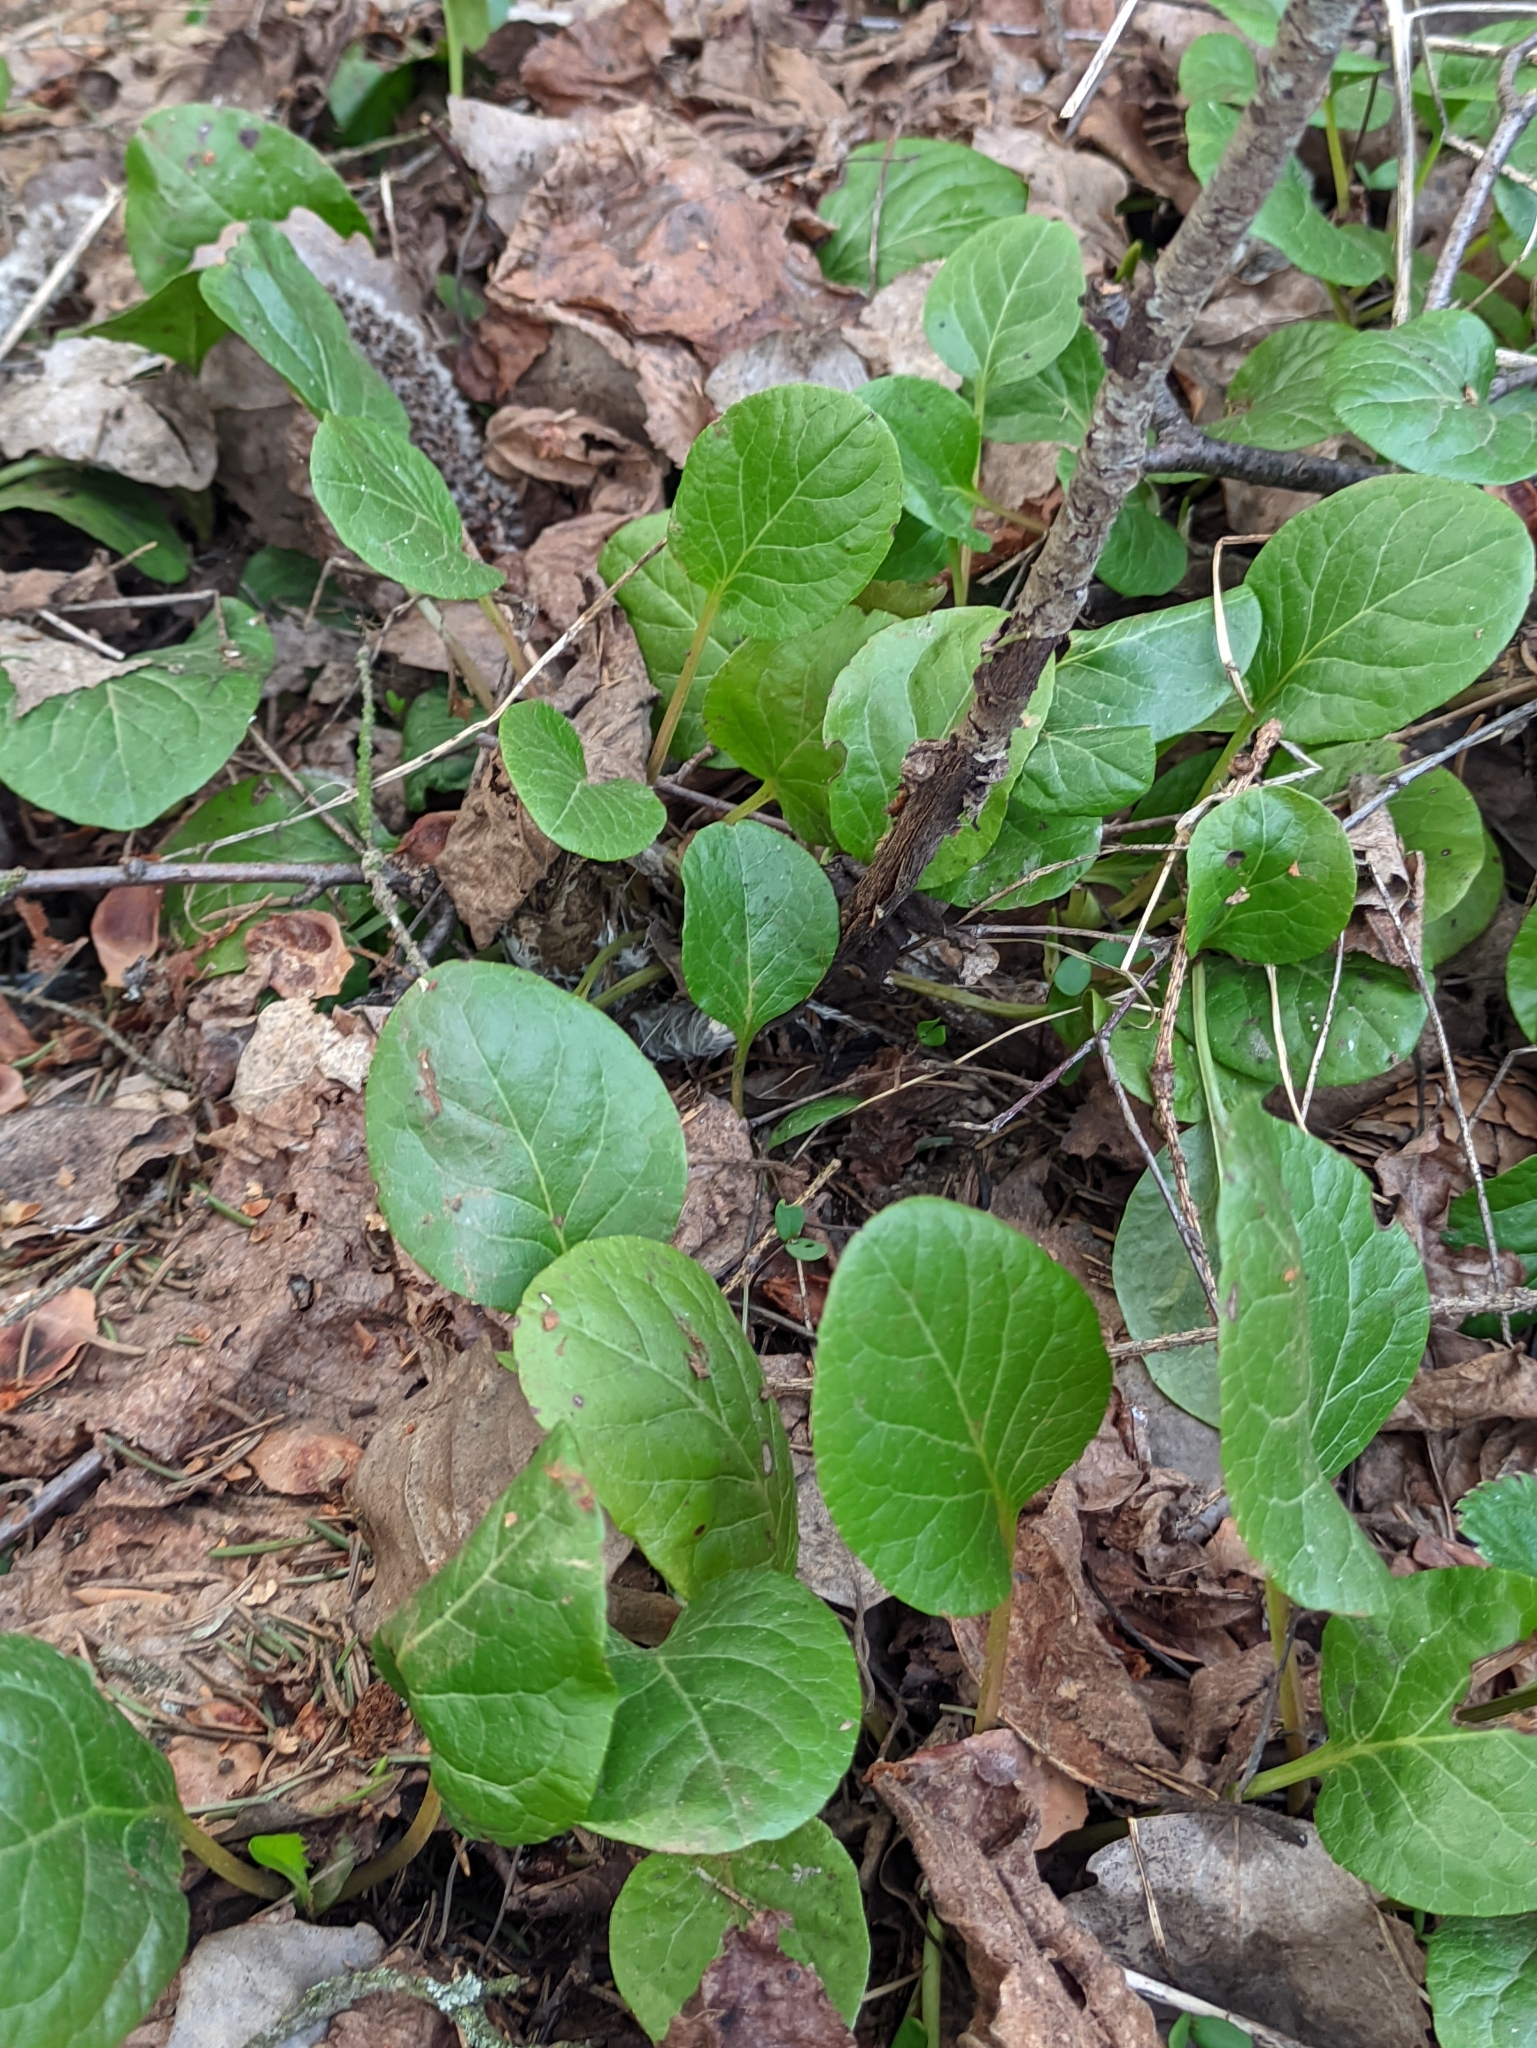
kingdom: Plantae
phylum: Tracheophyta
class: Magnoliopsida
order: Ericales
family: Ericaceae
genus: Pyrola
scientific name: Pyrola rotundifolia
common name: Round-leaved wintergreen
